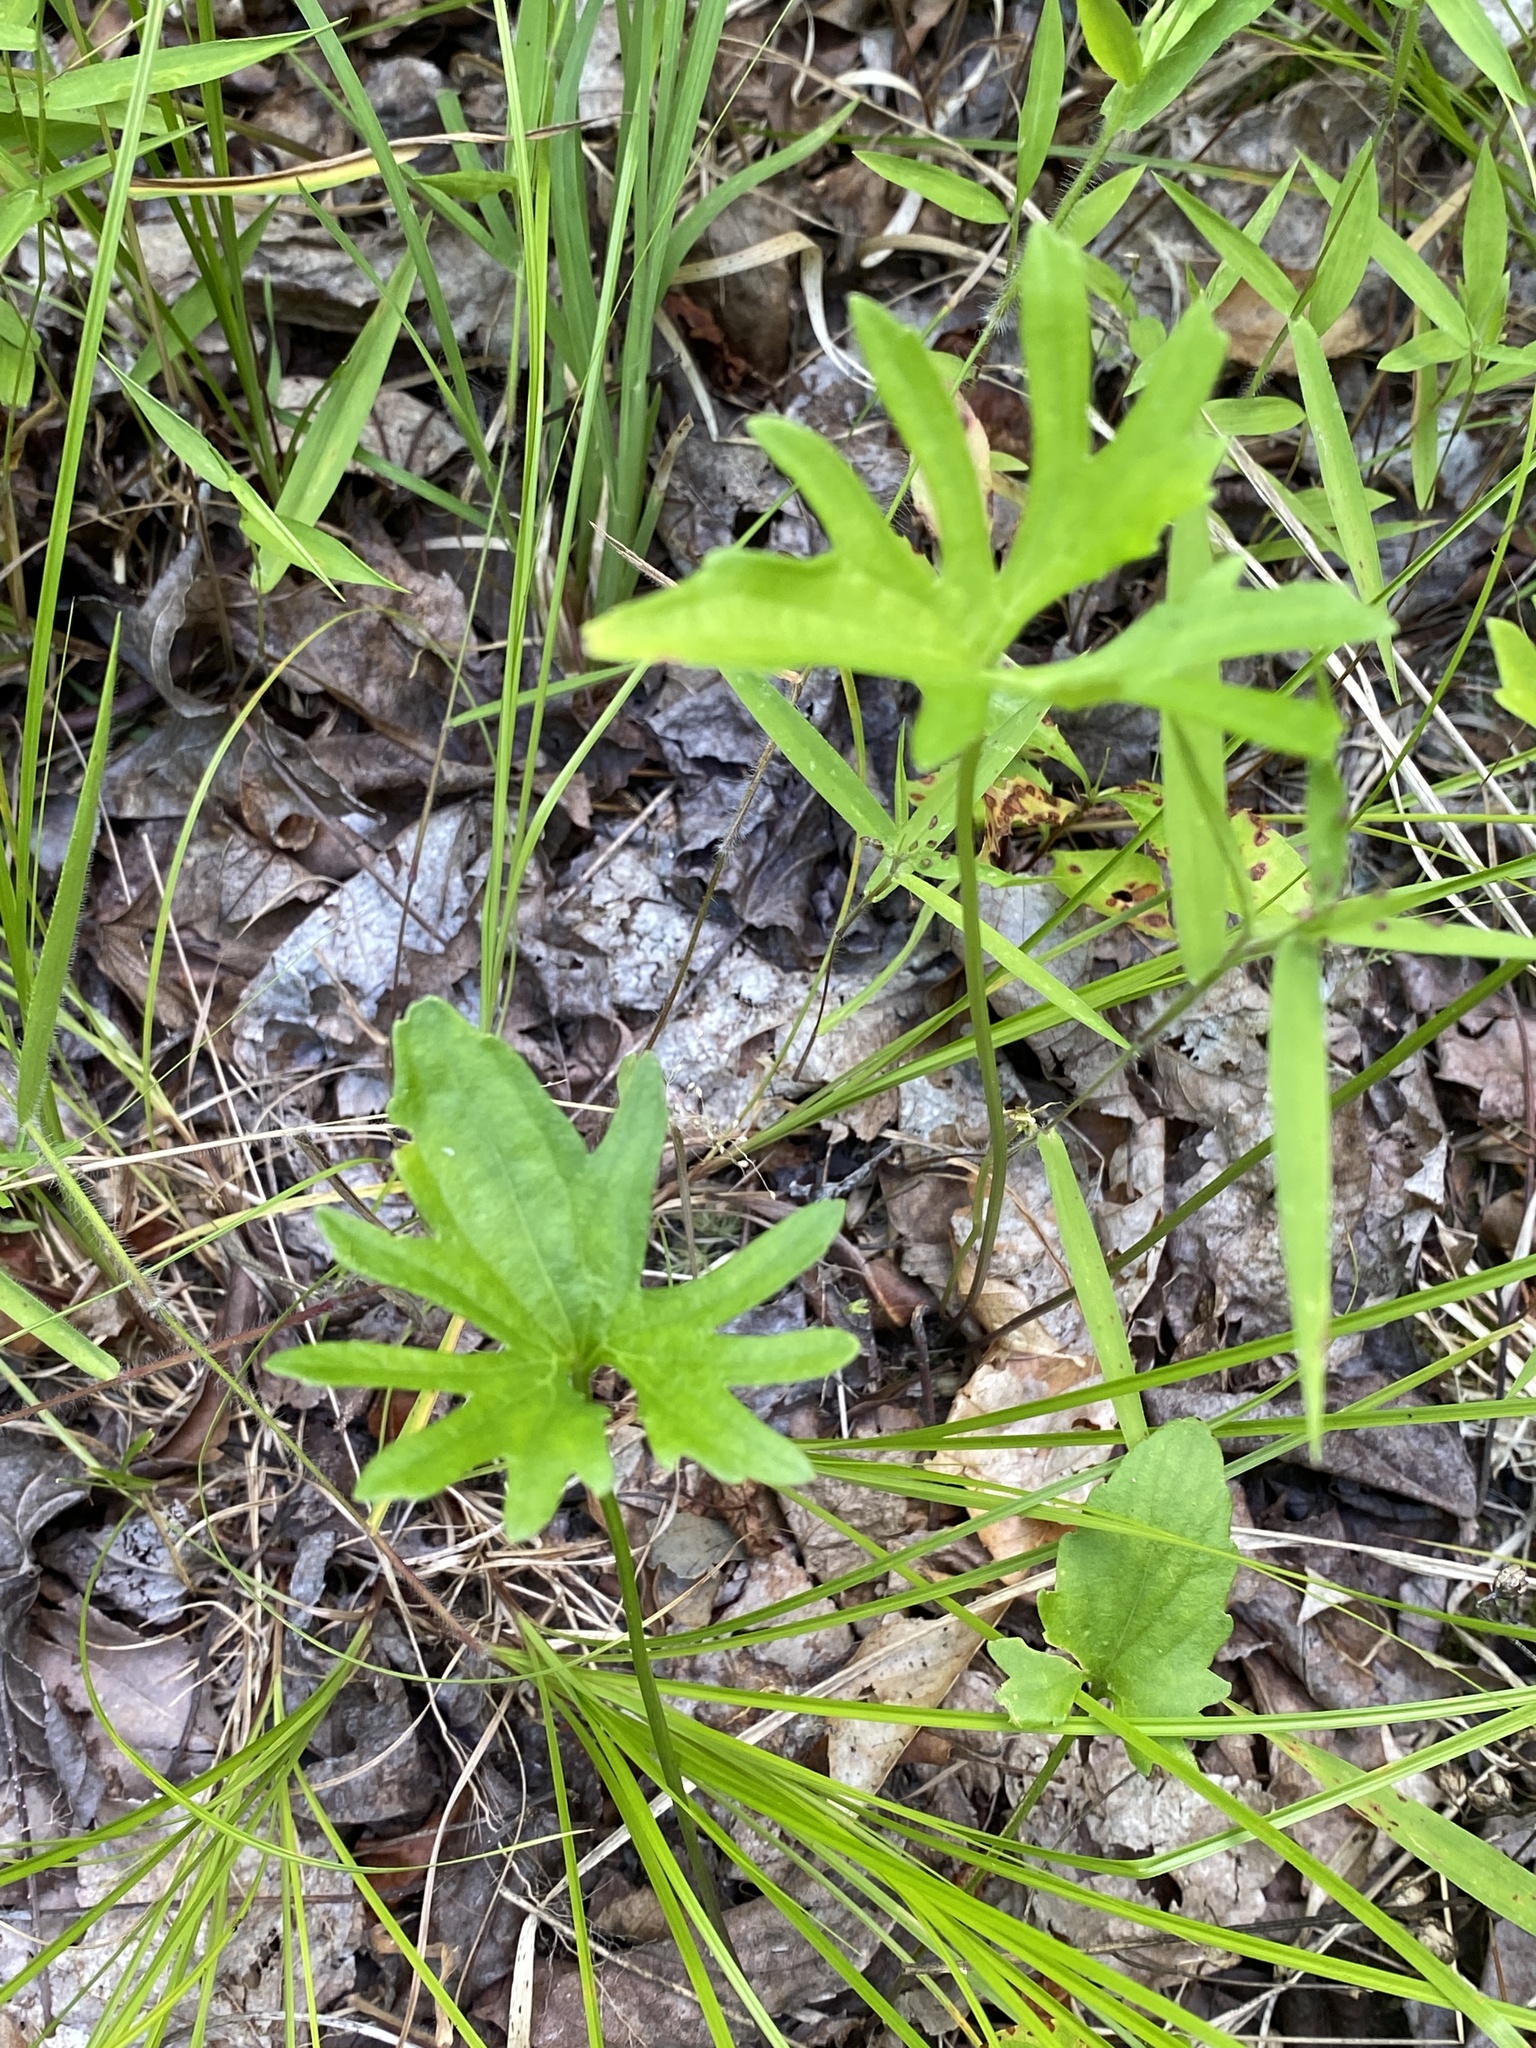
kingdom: Plantae
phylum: Tracheophyta
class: Magnoliopsida
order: Malpighiales
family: Violaceae
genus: Viola
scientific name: Viola brittoniana
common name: Northern coastal violet
